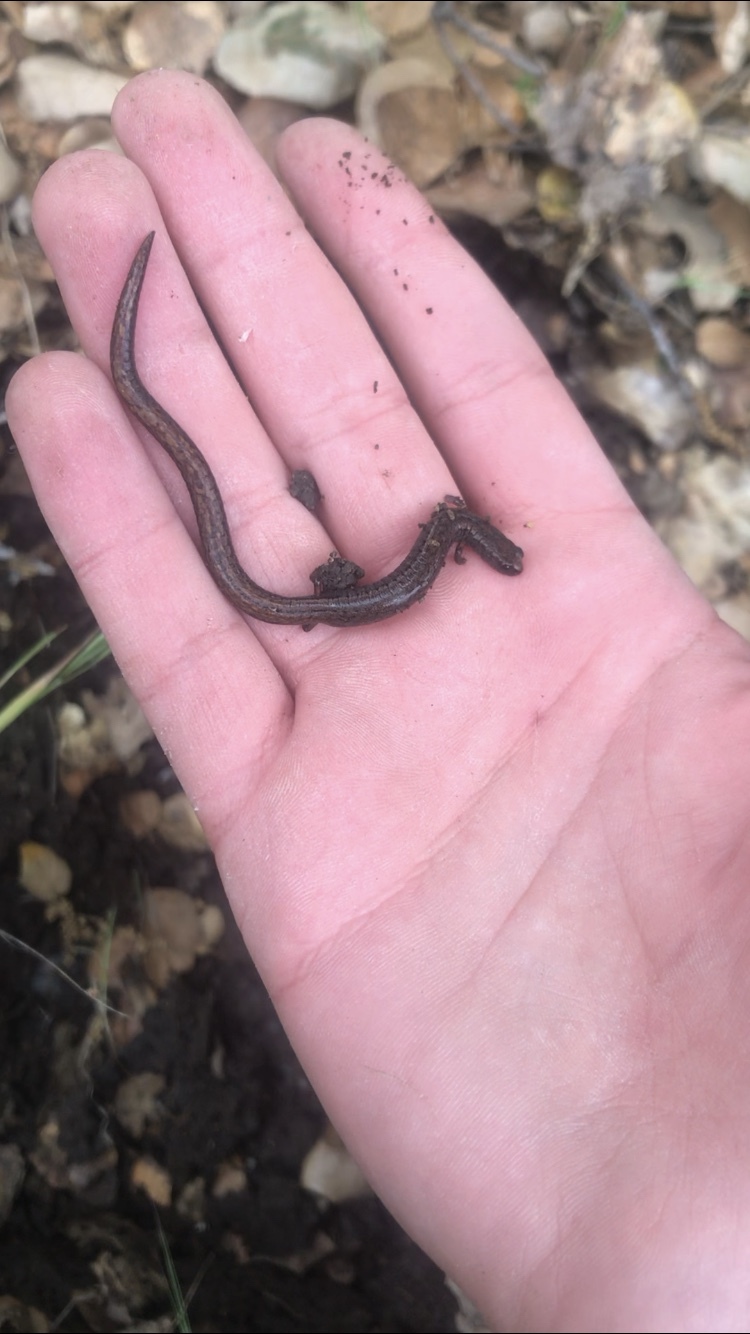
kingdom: Animalia
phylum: Chordata
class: Amphibia
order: Caudata
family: Plethodontidae
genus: Batrachoseps
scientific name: Batrachoseps attenuatus
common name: California slender salamander
